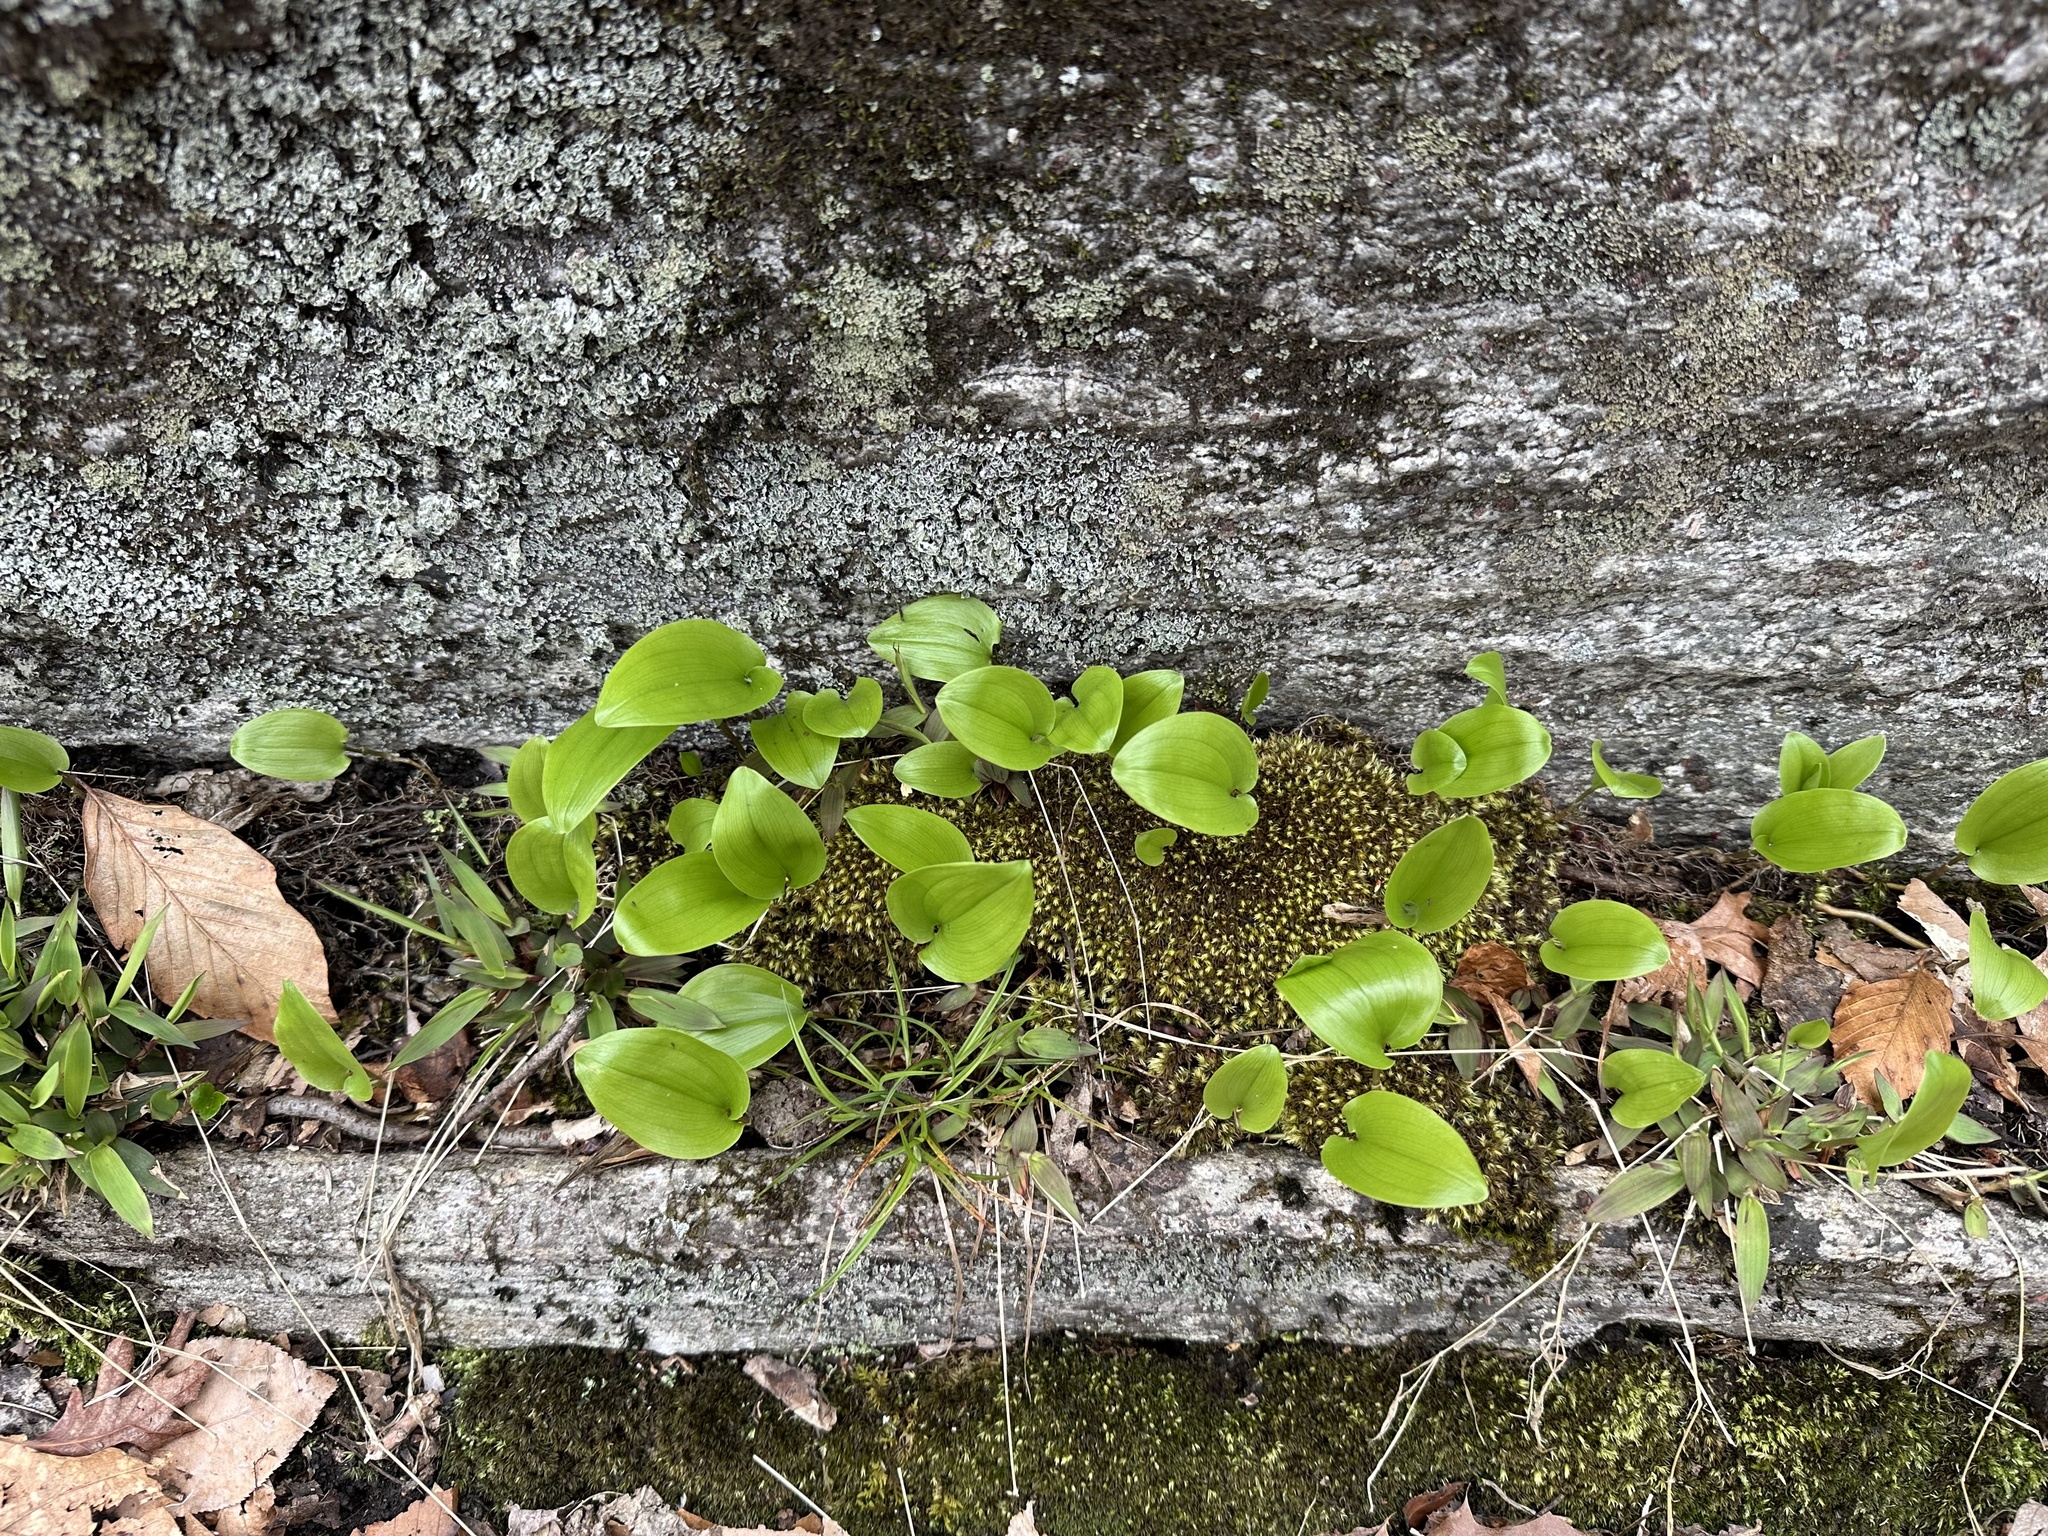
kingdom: Plantae
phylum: Tracheophyta
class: Liliopsida
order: Asparagales
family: Asparagaceae
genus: Maianthemum
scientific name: Maianthemum canadense
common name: False lily-of-the-valley
